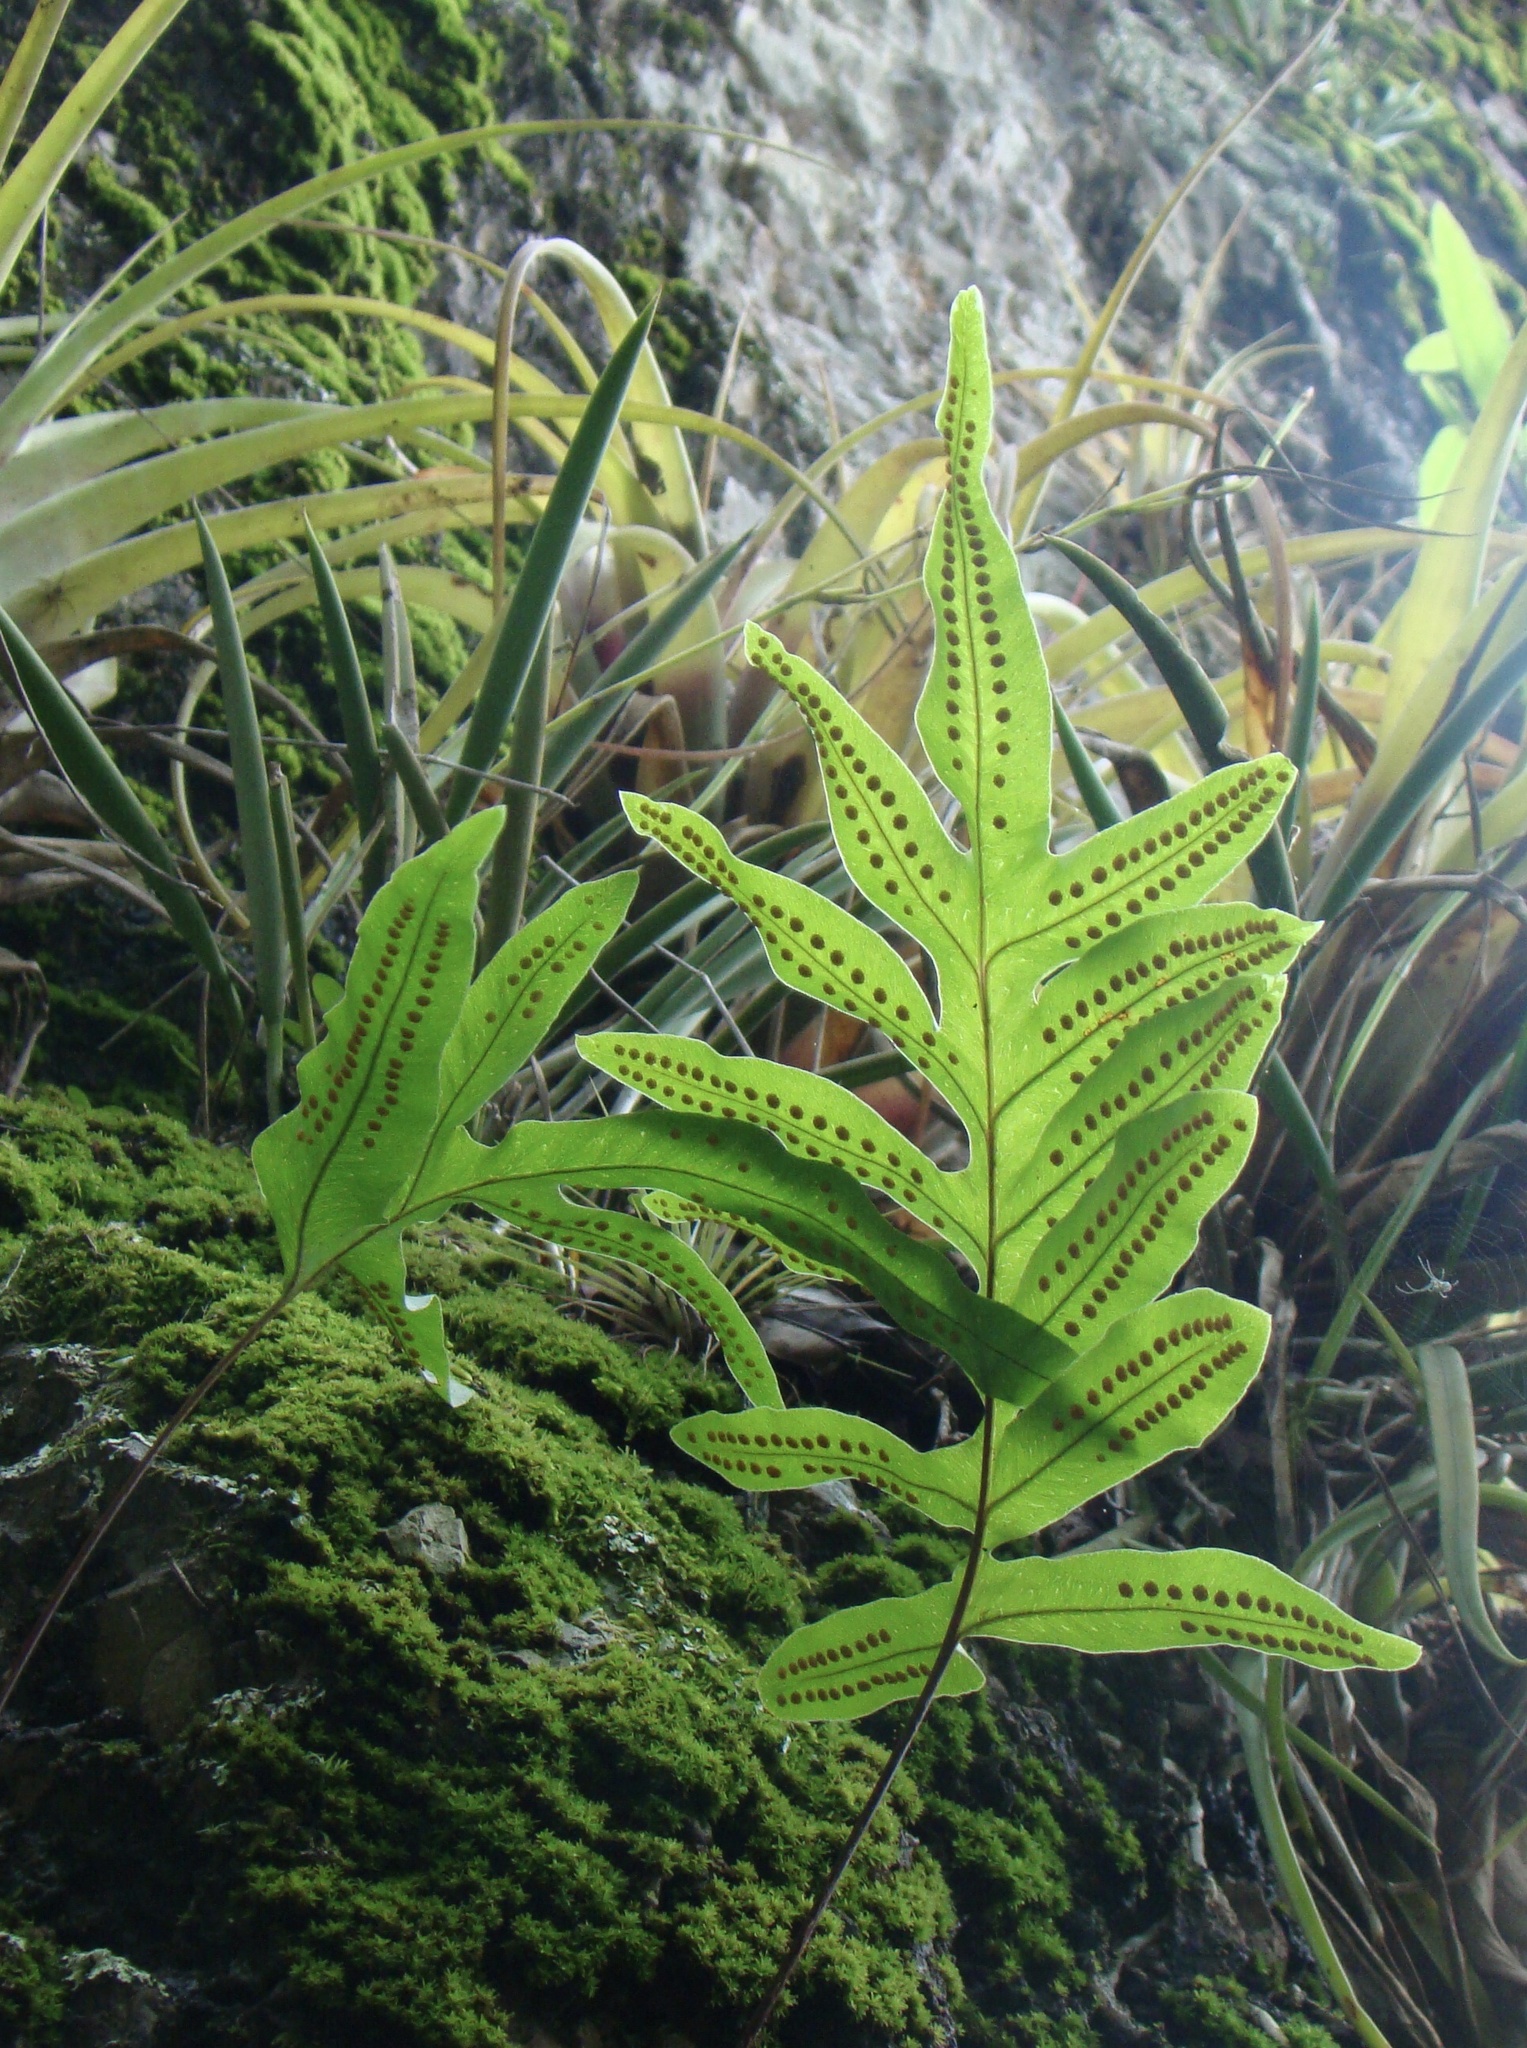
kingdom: Plantae
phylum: Tracheophyta
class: Polypodiopsida
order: Polypodiales
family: Polypodiaceae
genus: Phlebodium
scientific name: Phlebodium pseudoaureum
